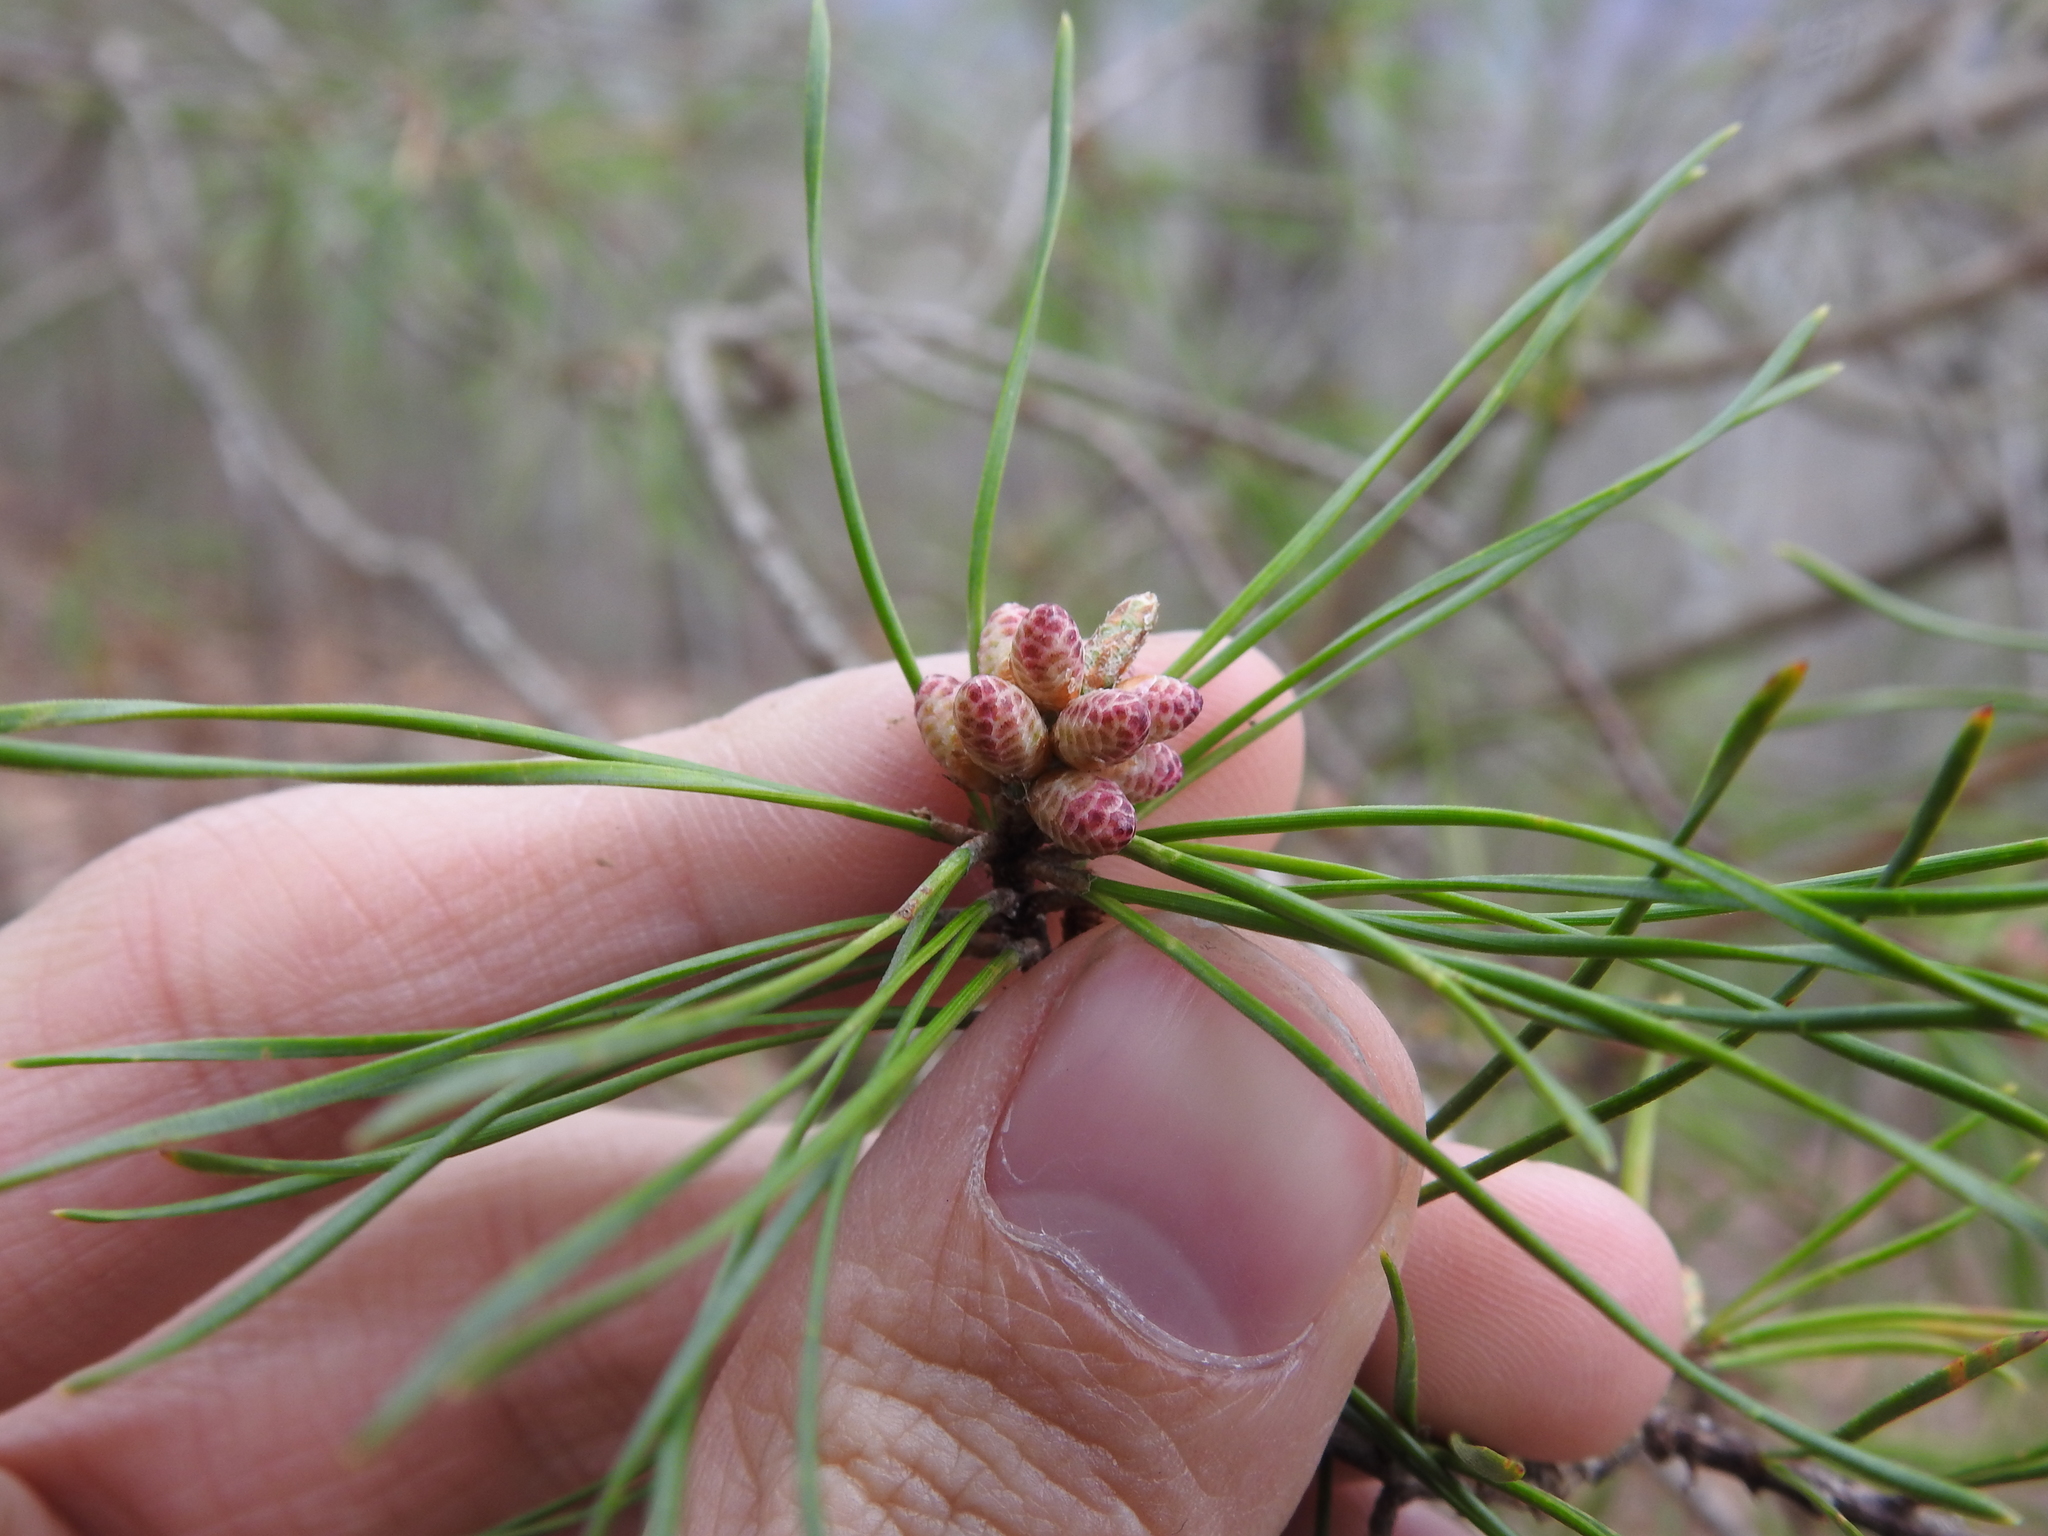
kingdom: Plantae
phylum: Tracheophyta
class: Pinopsida
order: Pinales
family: Pinaceae
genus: Pinus
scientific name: Pinus virginiana
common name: Scrub pine
